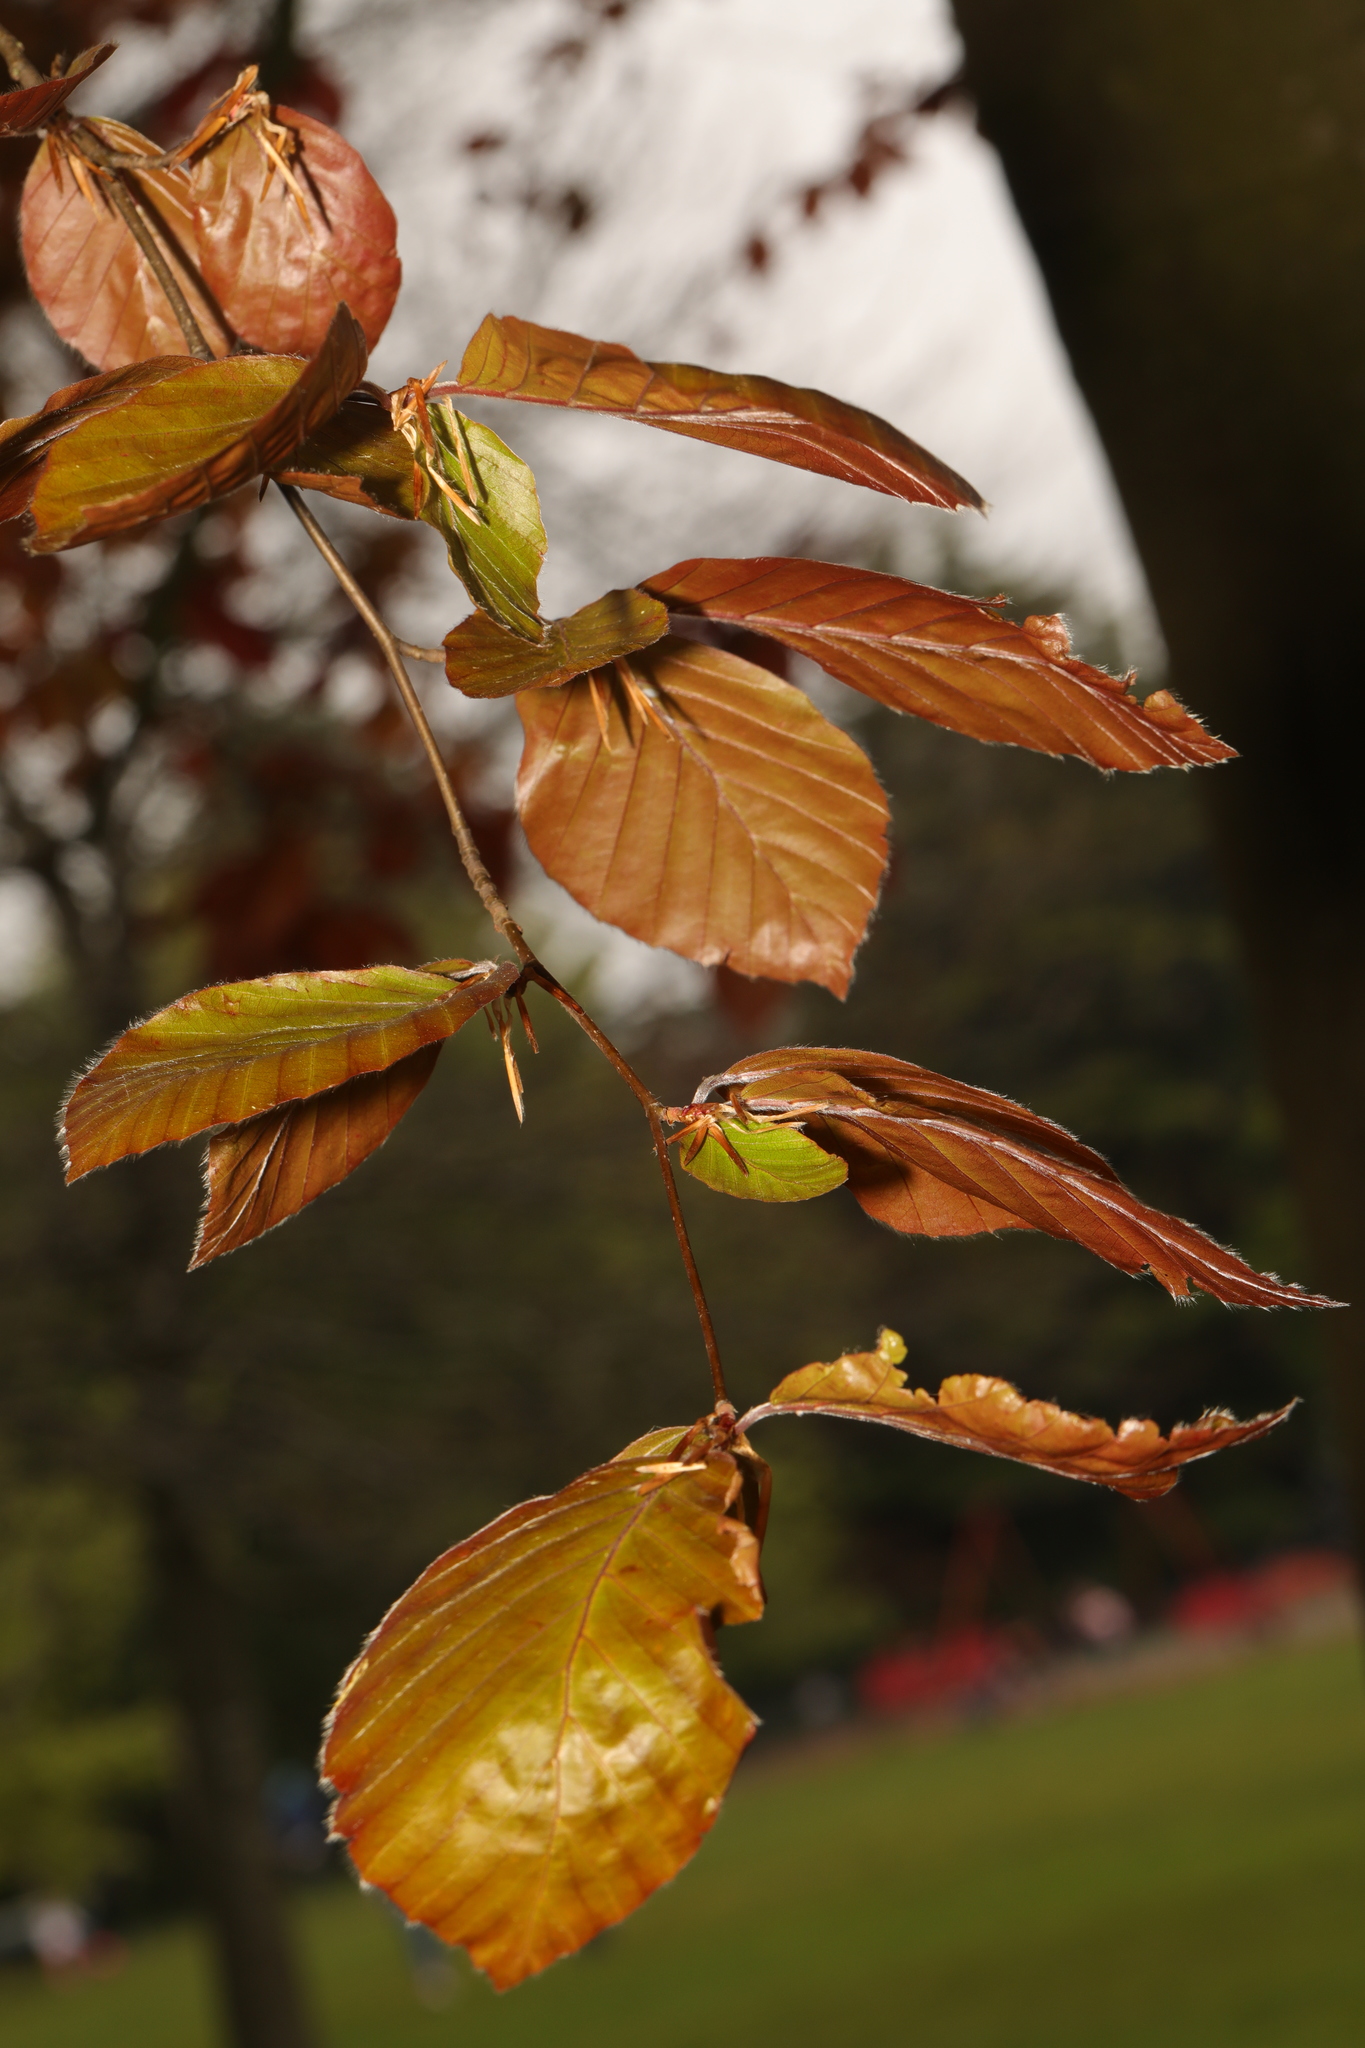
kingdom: Plantae
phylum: Tracheophyta
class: Magnoliopsida
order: Fagales
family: Fagaceae
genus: Fagus
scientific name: Fagus sylvatica
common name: Beech
